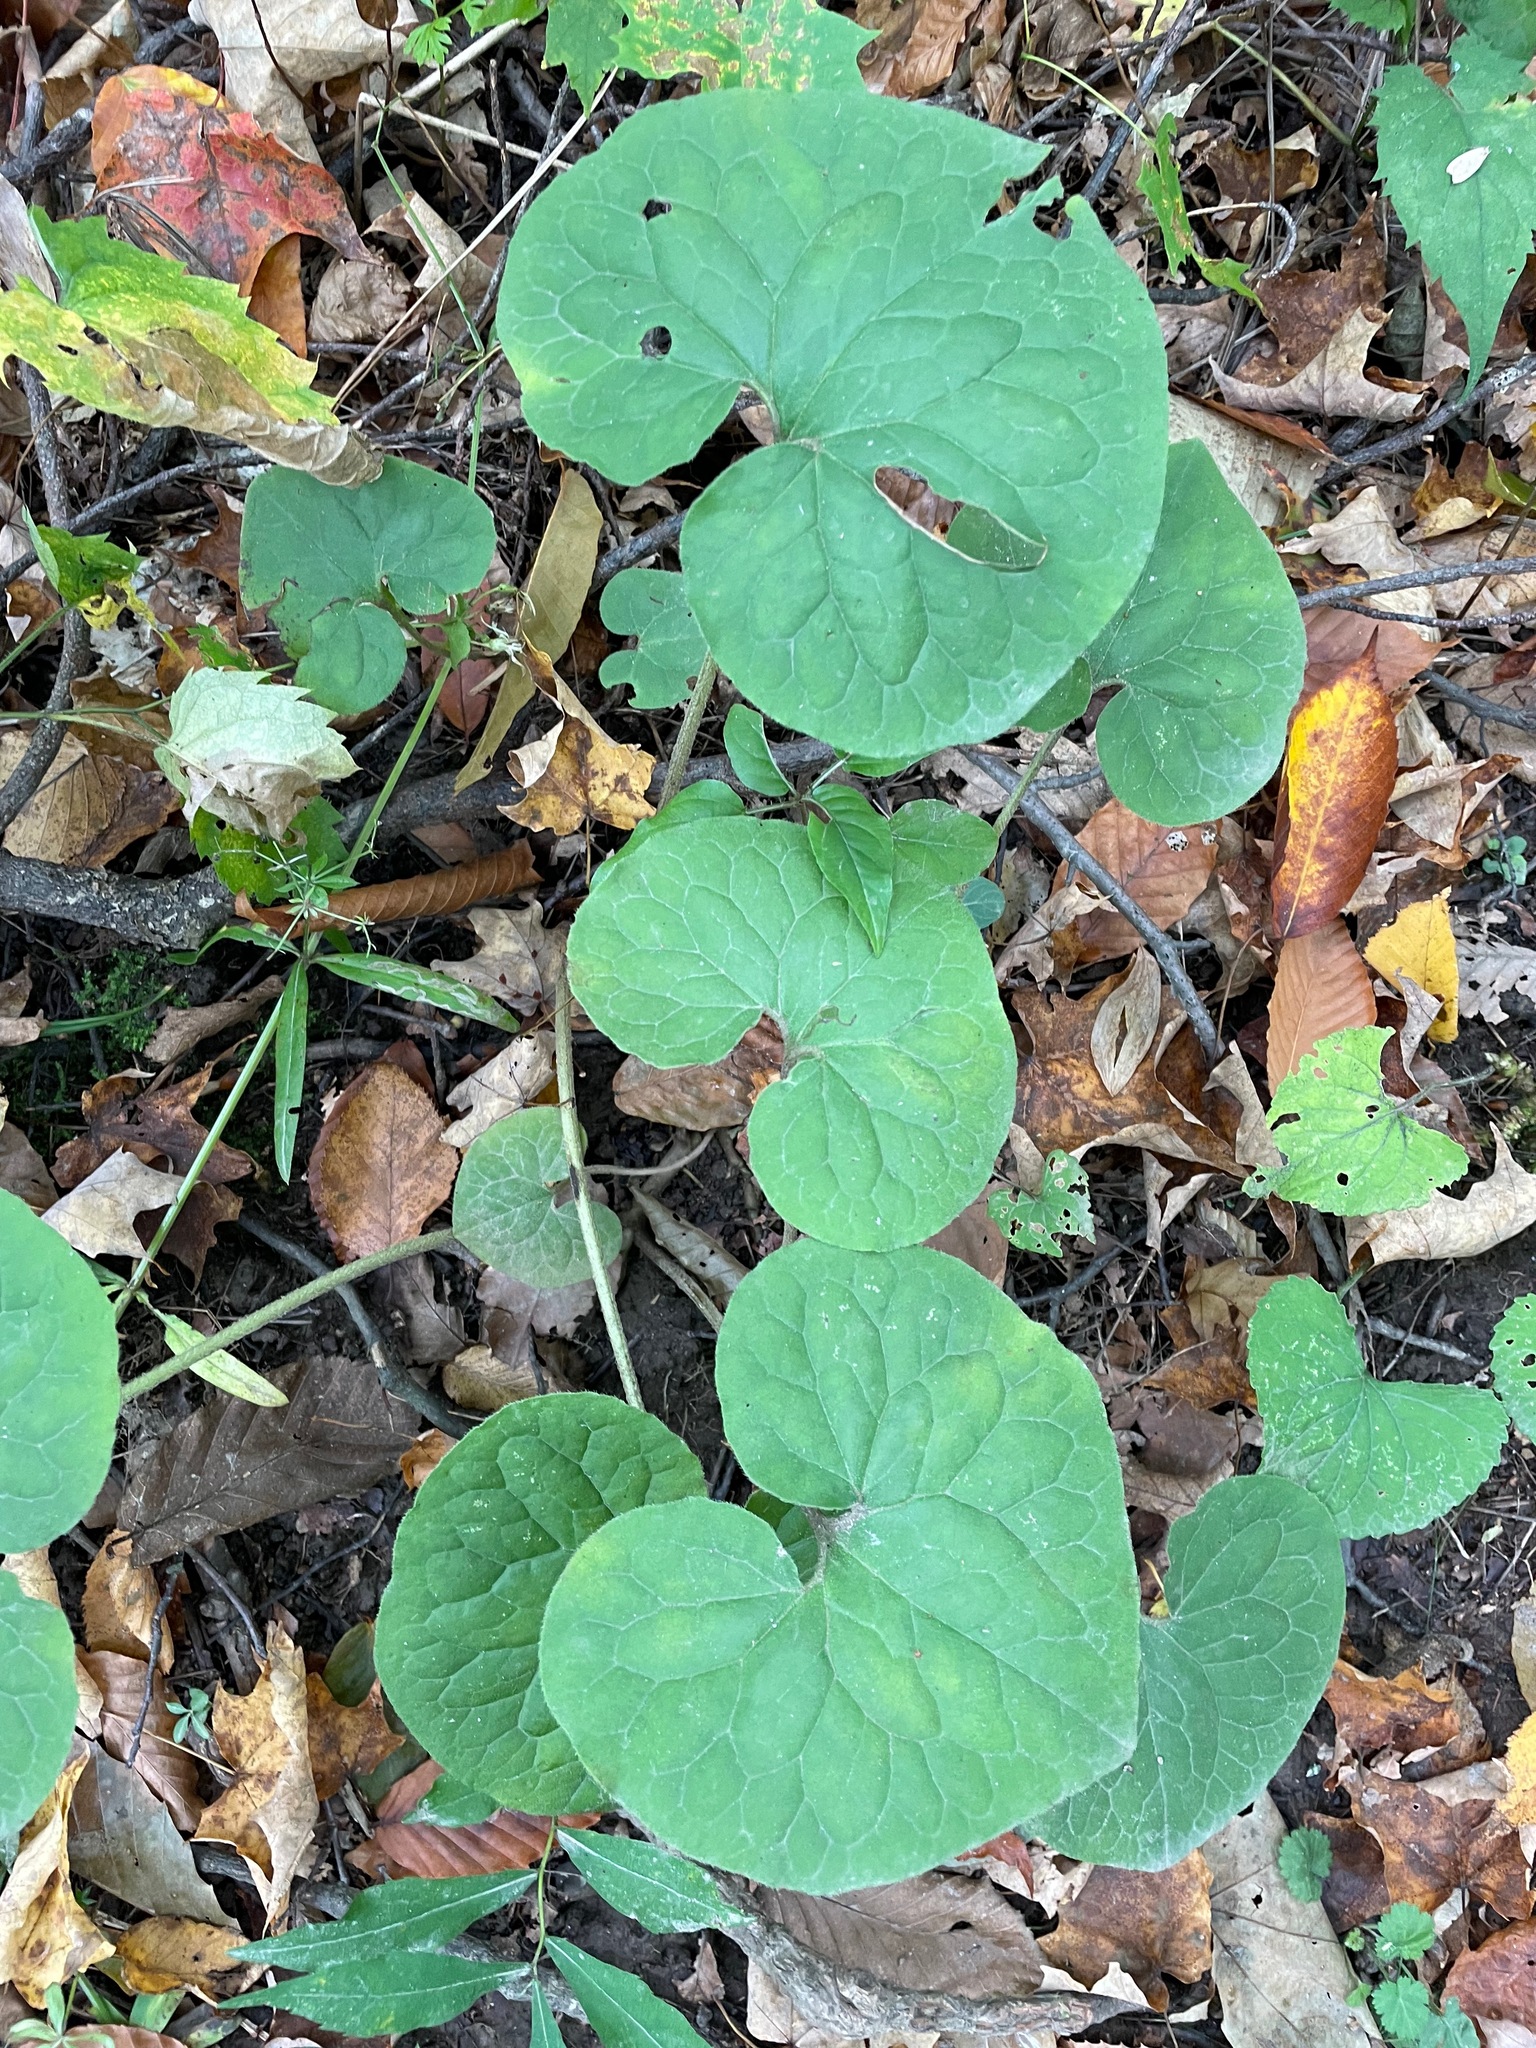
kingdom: Plantae
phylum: Tracheophyta
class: Magnoliopsida
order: Piperales
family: Aristolochiaceae
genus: Asarum
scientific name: Asarum canadense
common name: Wild ginger
